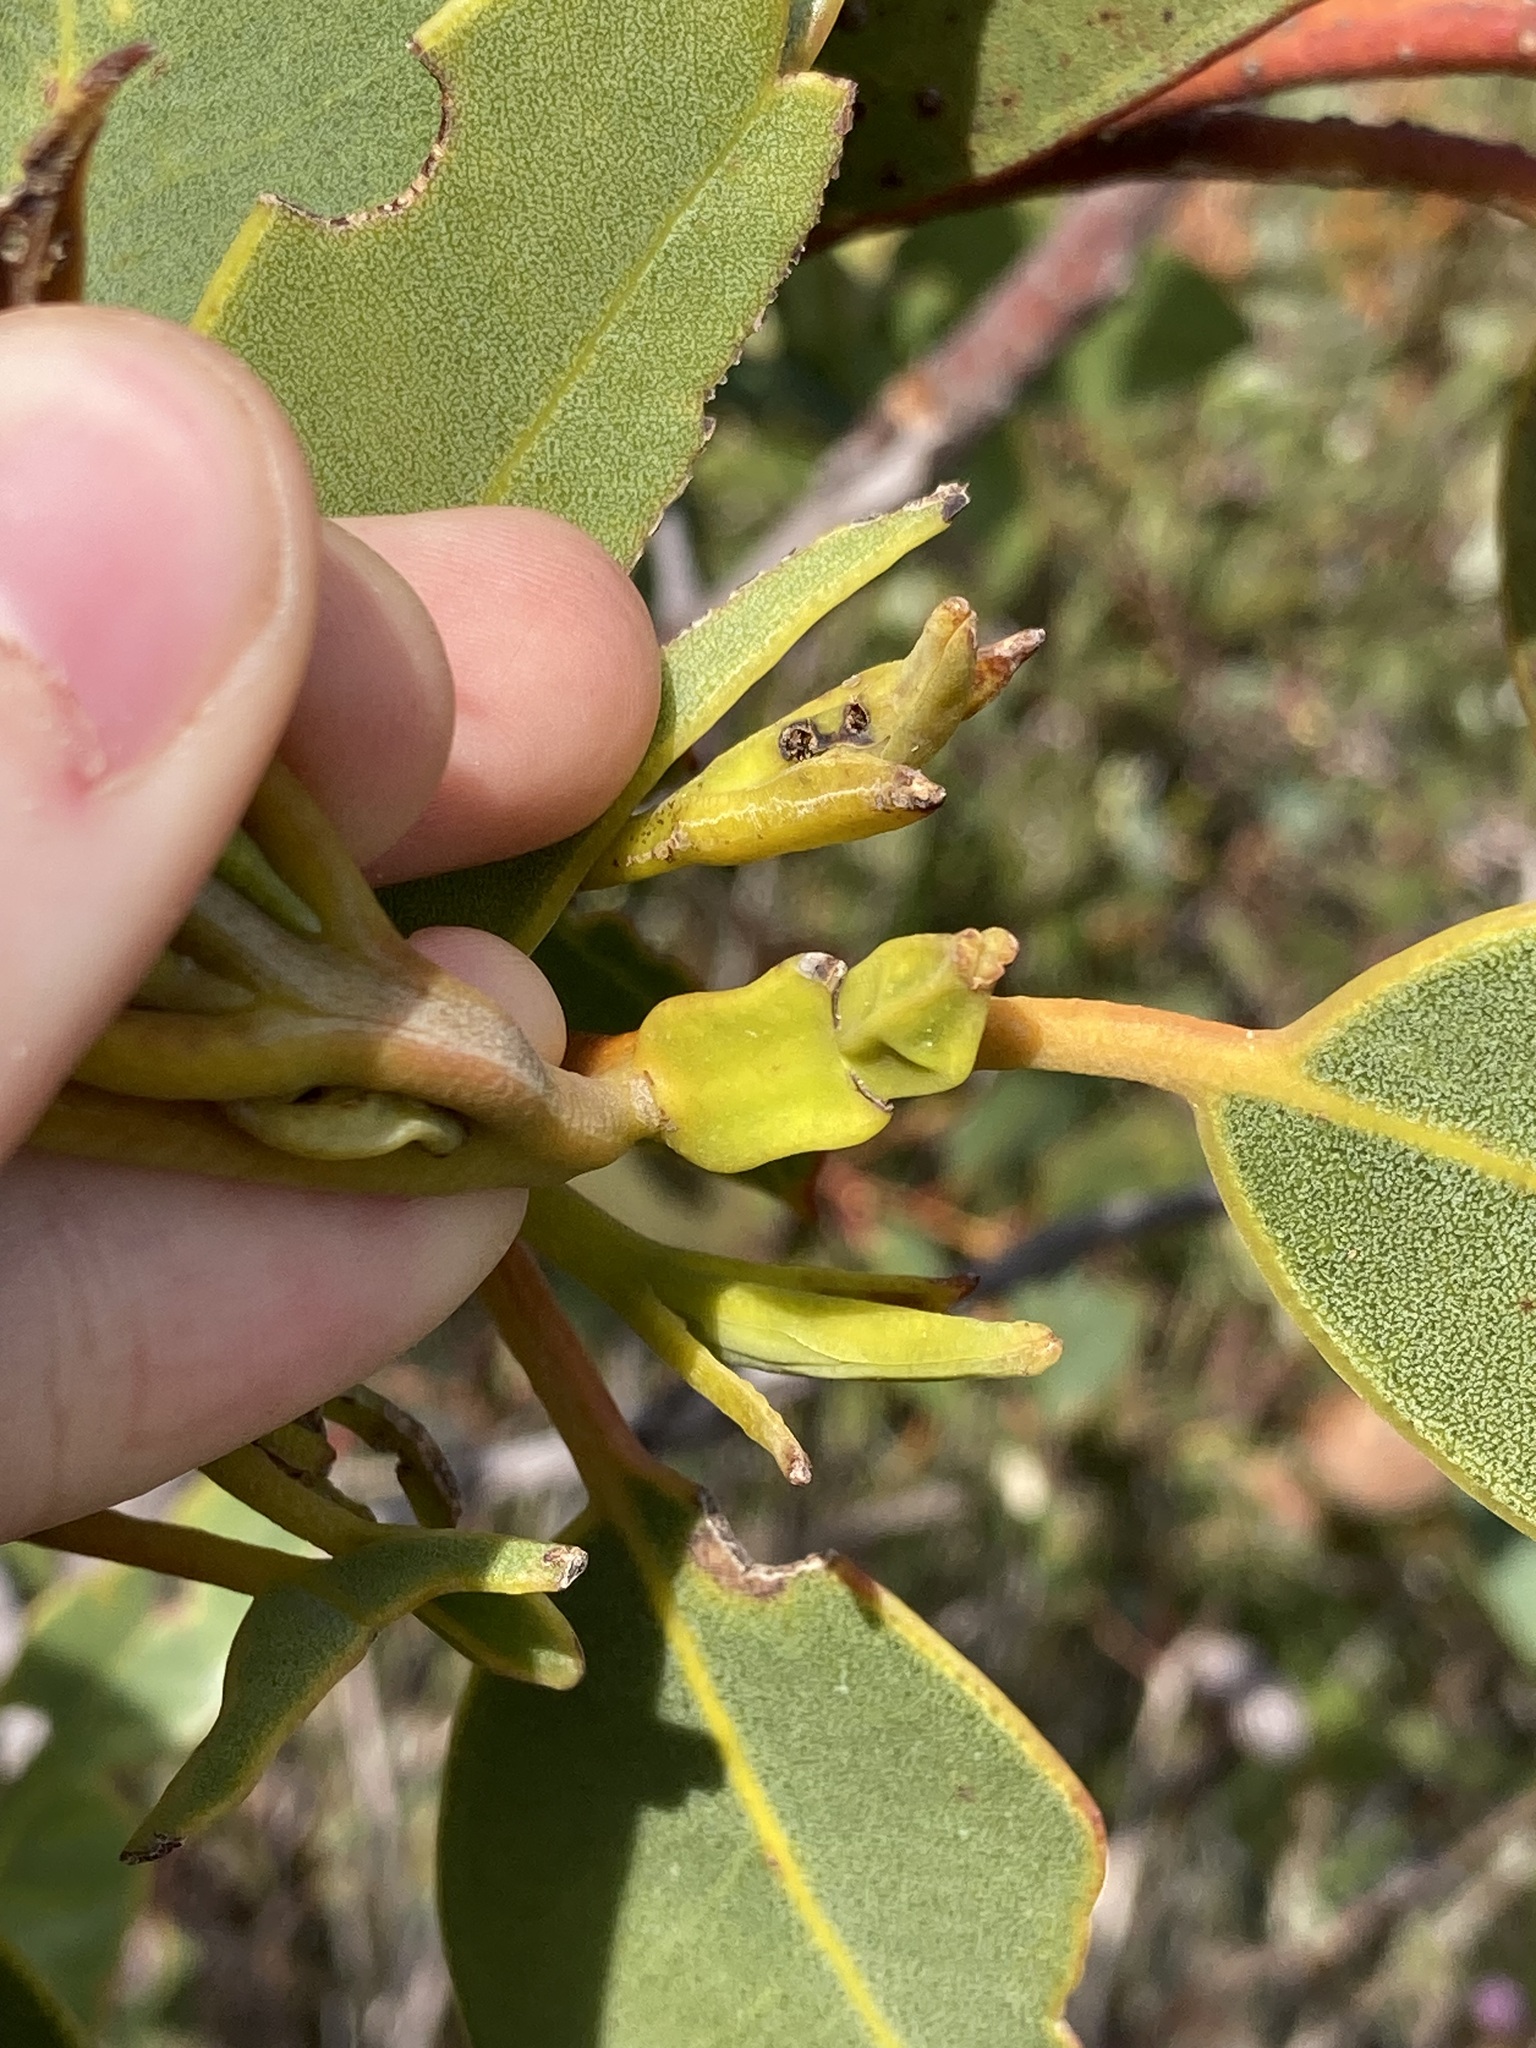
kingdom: Plantae
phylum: Tracheophyta
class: Magnoliopsida
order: Myrtales
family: Myrtaceae
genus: Eucalyptus
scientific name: Eucalyptus tetraptera
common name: Four-wing mallee
